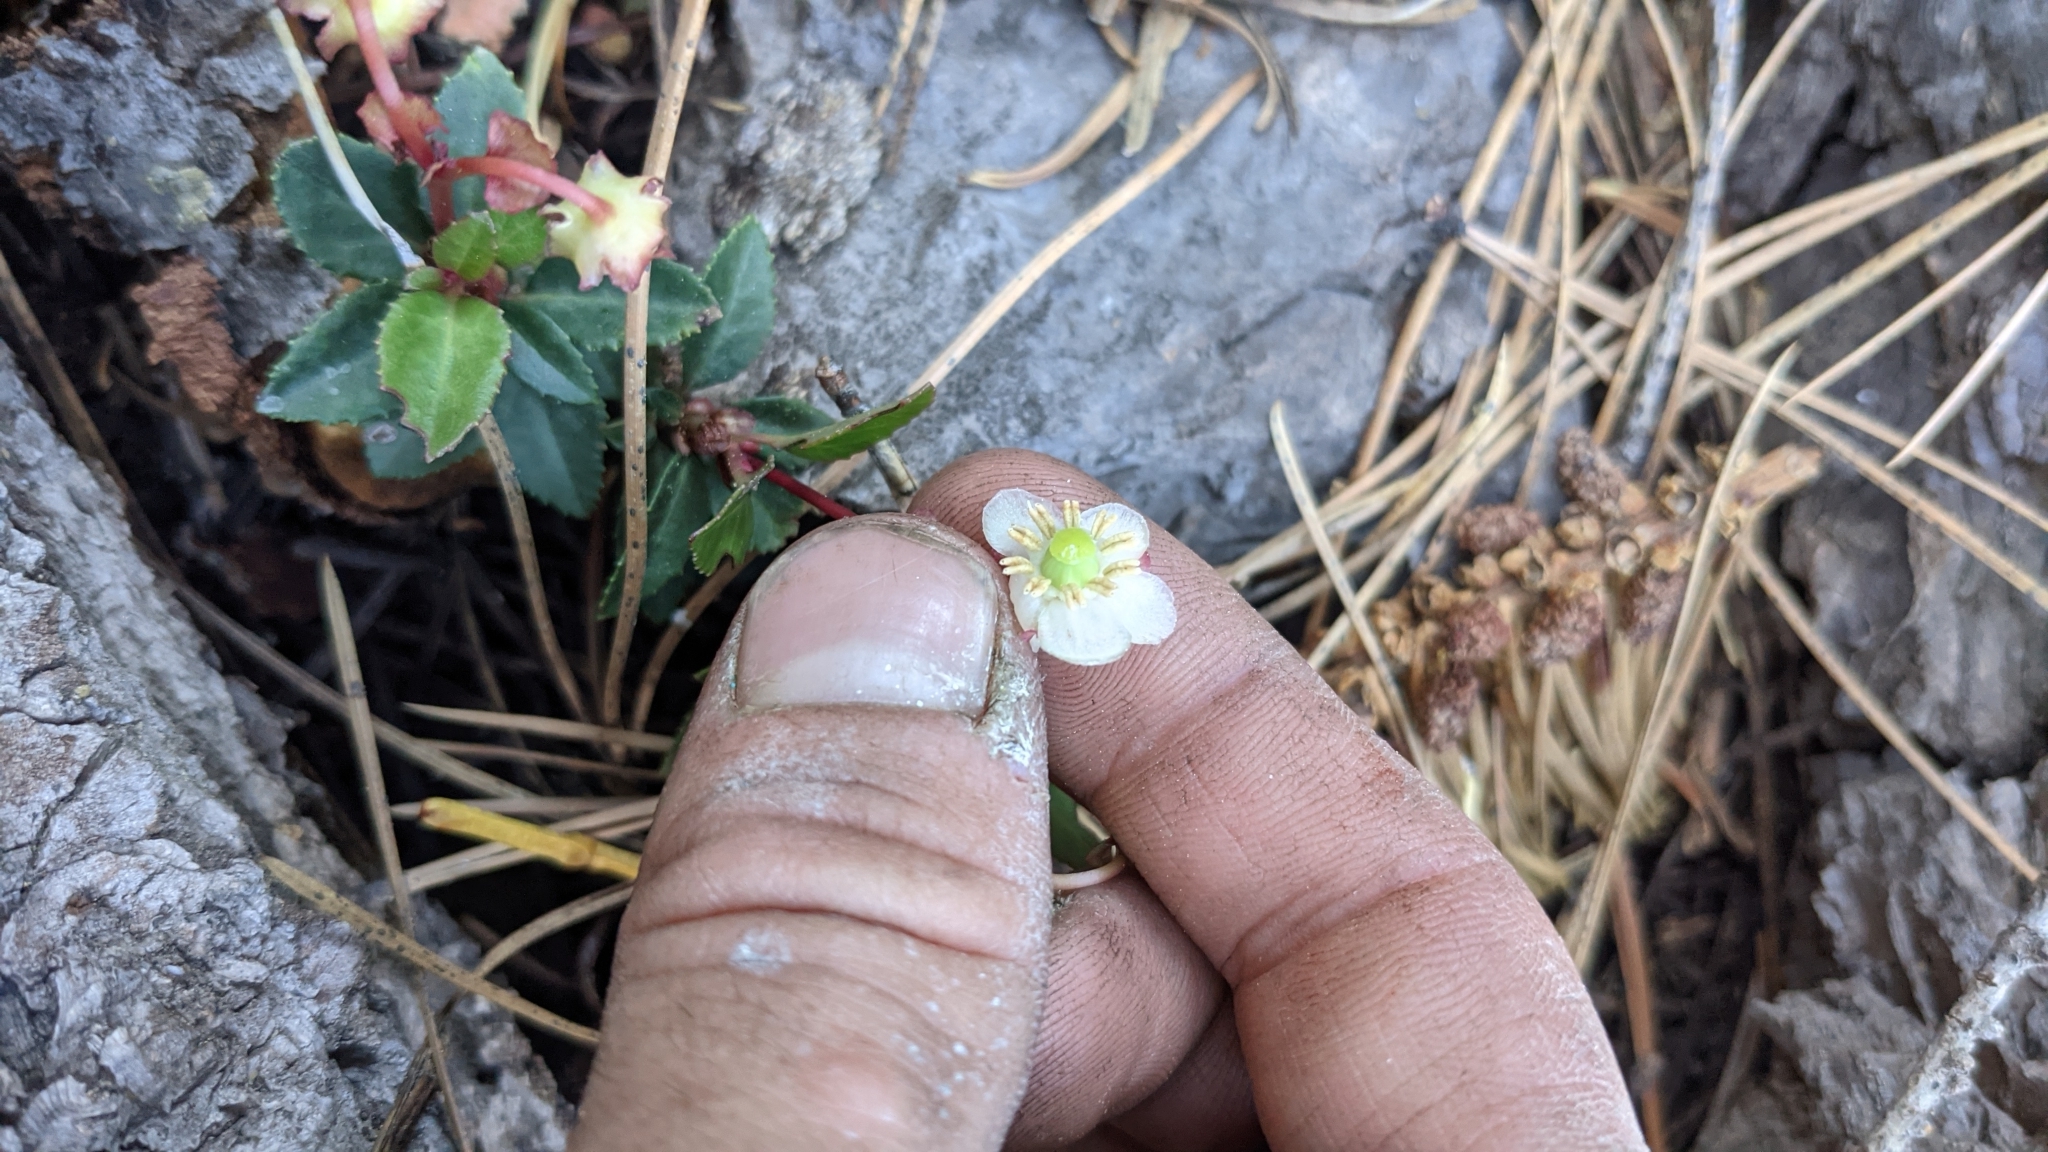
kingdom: Plantae
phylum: Tracheophyta
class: Magnoliopsida
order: Ericales
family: Ericaceae
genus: Chimaphila
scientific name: Chimaphila menziesii
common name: Menzies' pipsissewa
